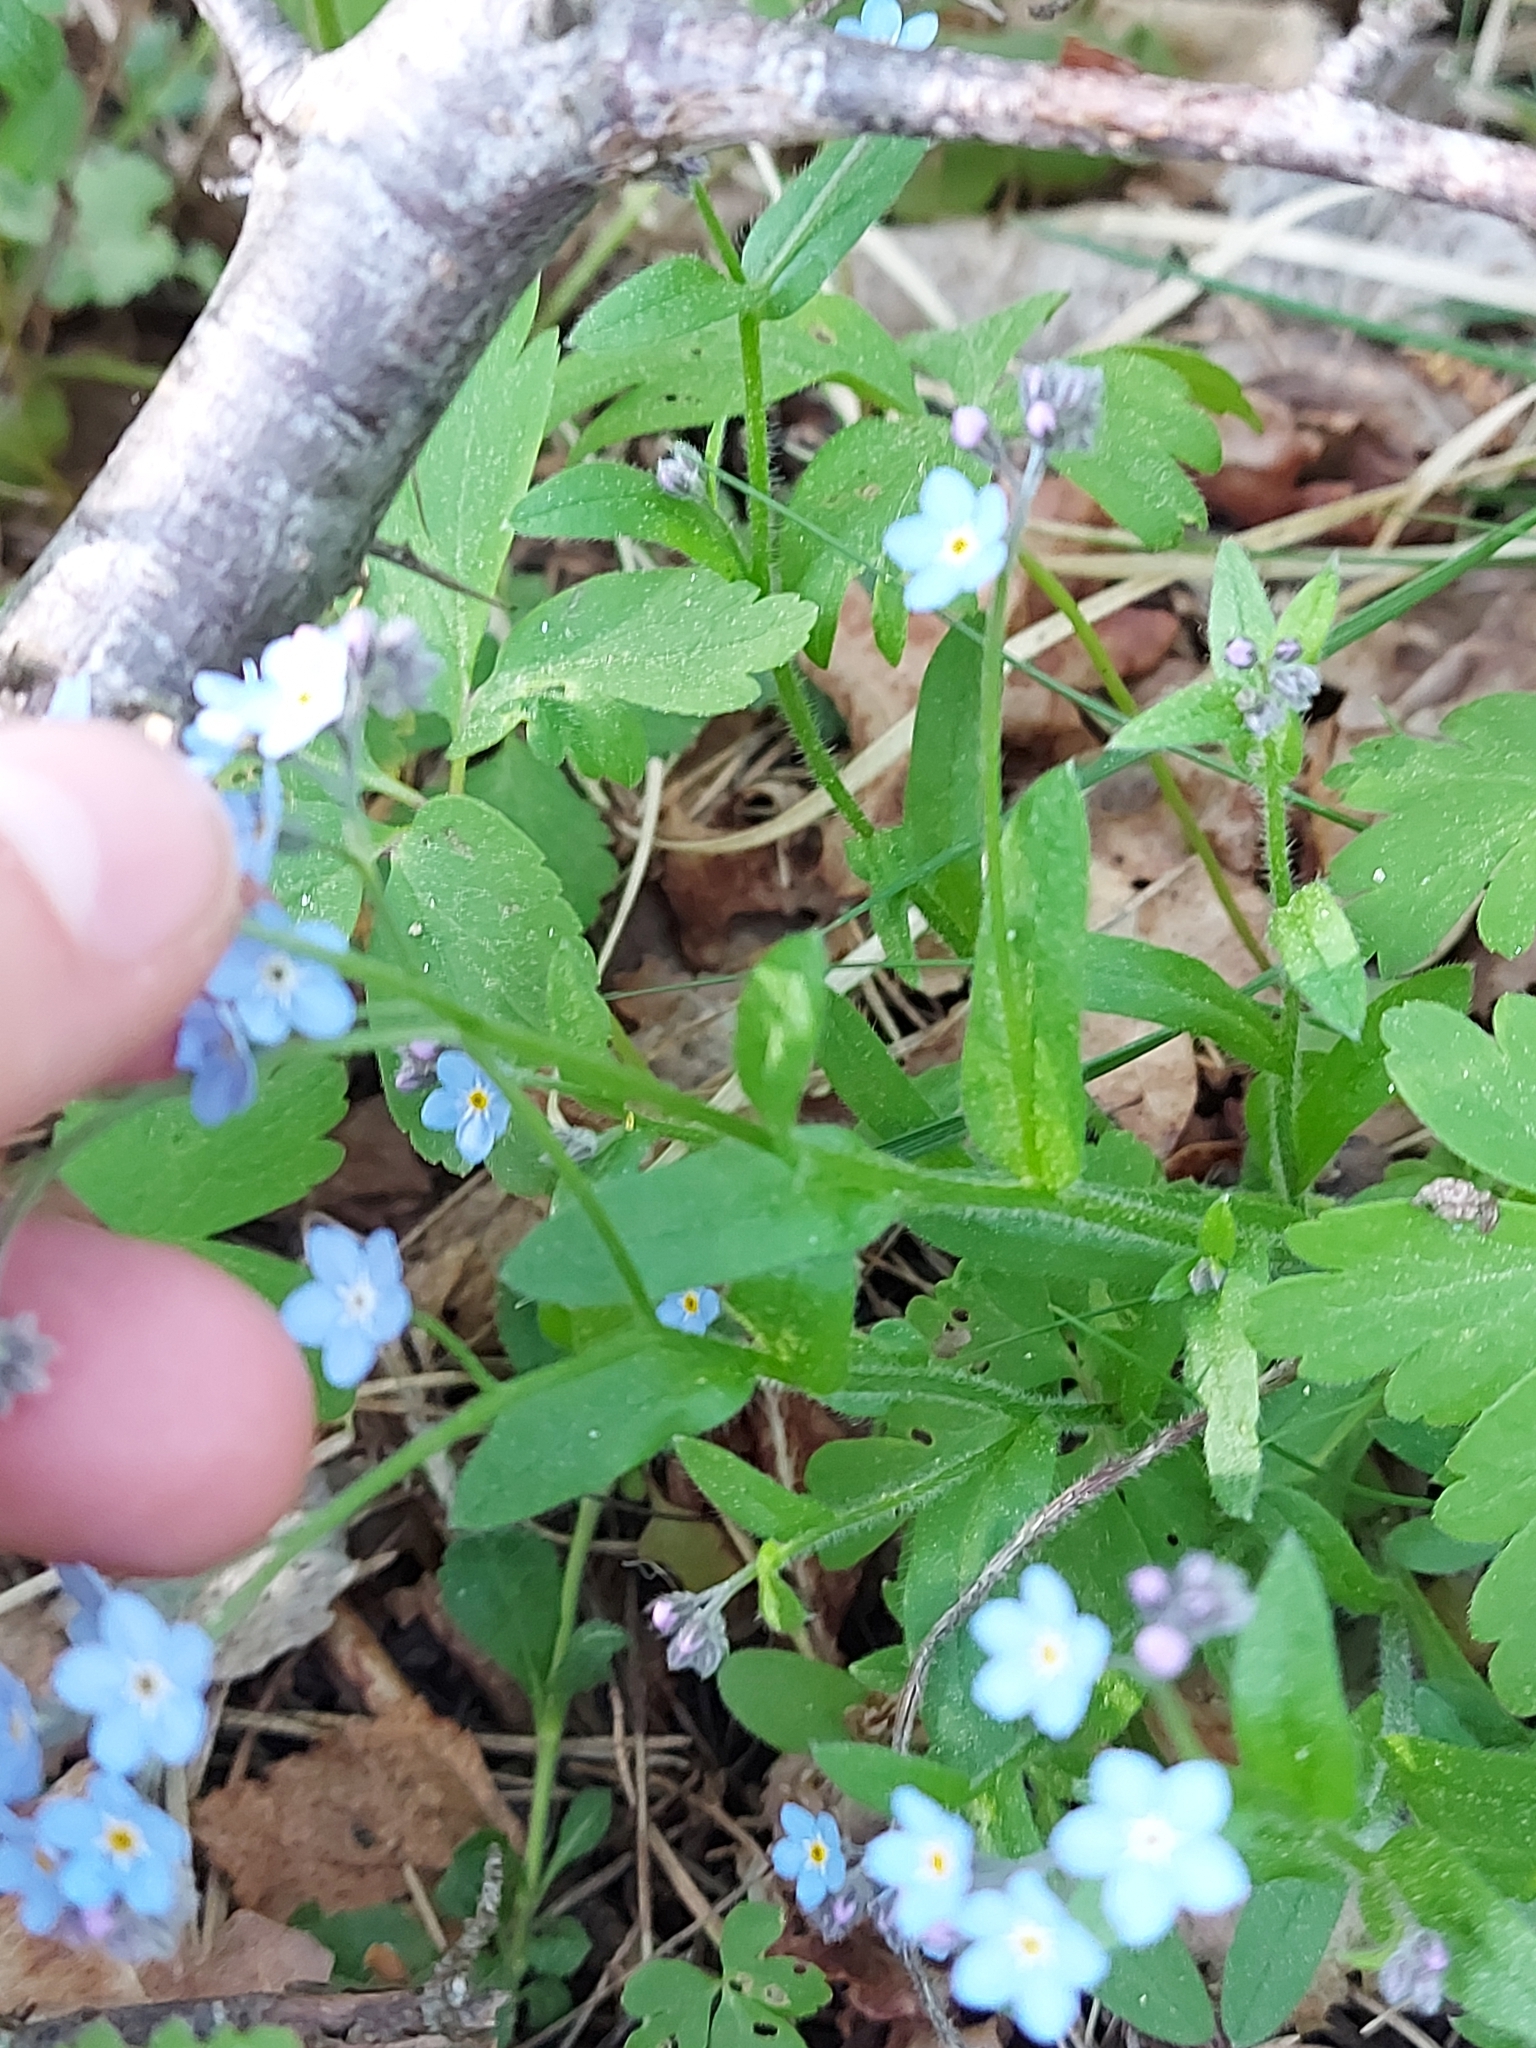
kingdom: Plantae
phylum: Tracheophyta
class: Magnoliopsida
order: Boraginales
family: Boraginaceae
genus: Myosotis
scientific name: Myosotis sylvatica
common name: Wood forget-me-not
